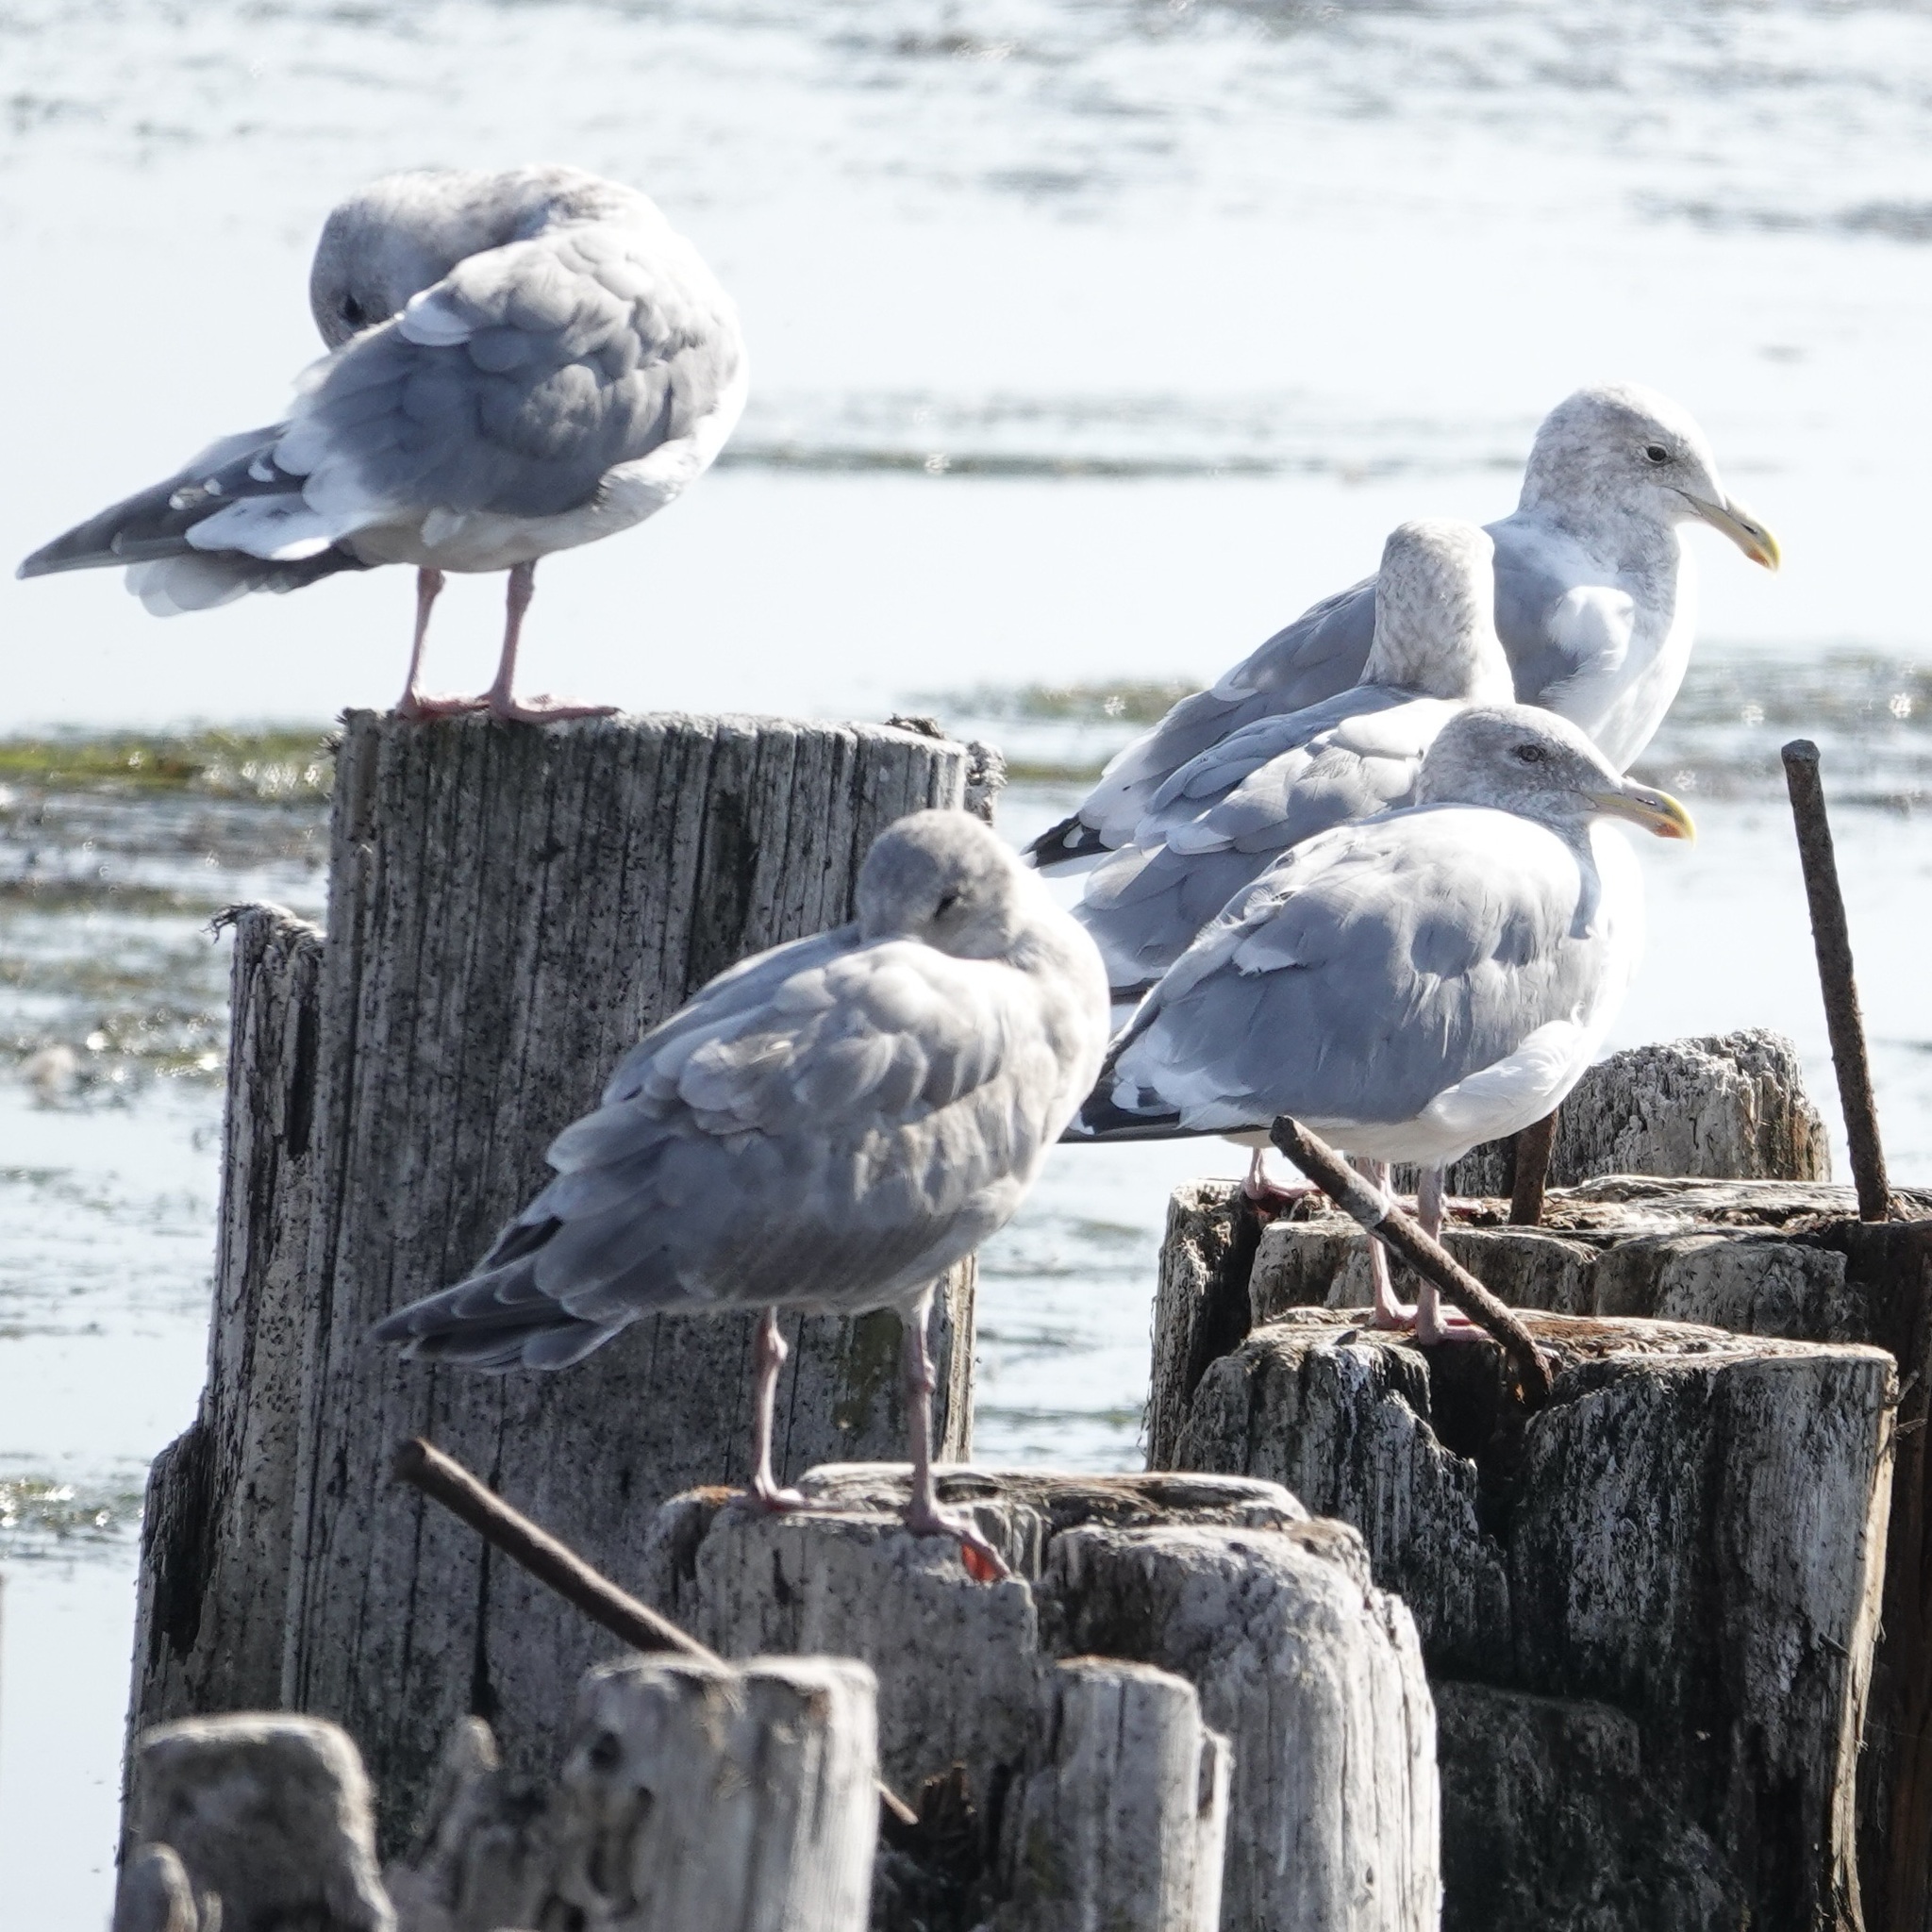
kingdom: Animalia
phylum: Chordata
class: Aves
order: Charadriiformes
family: Laridae
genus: Larus
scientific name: Larus
